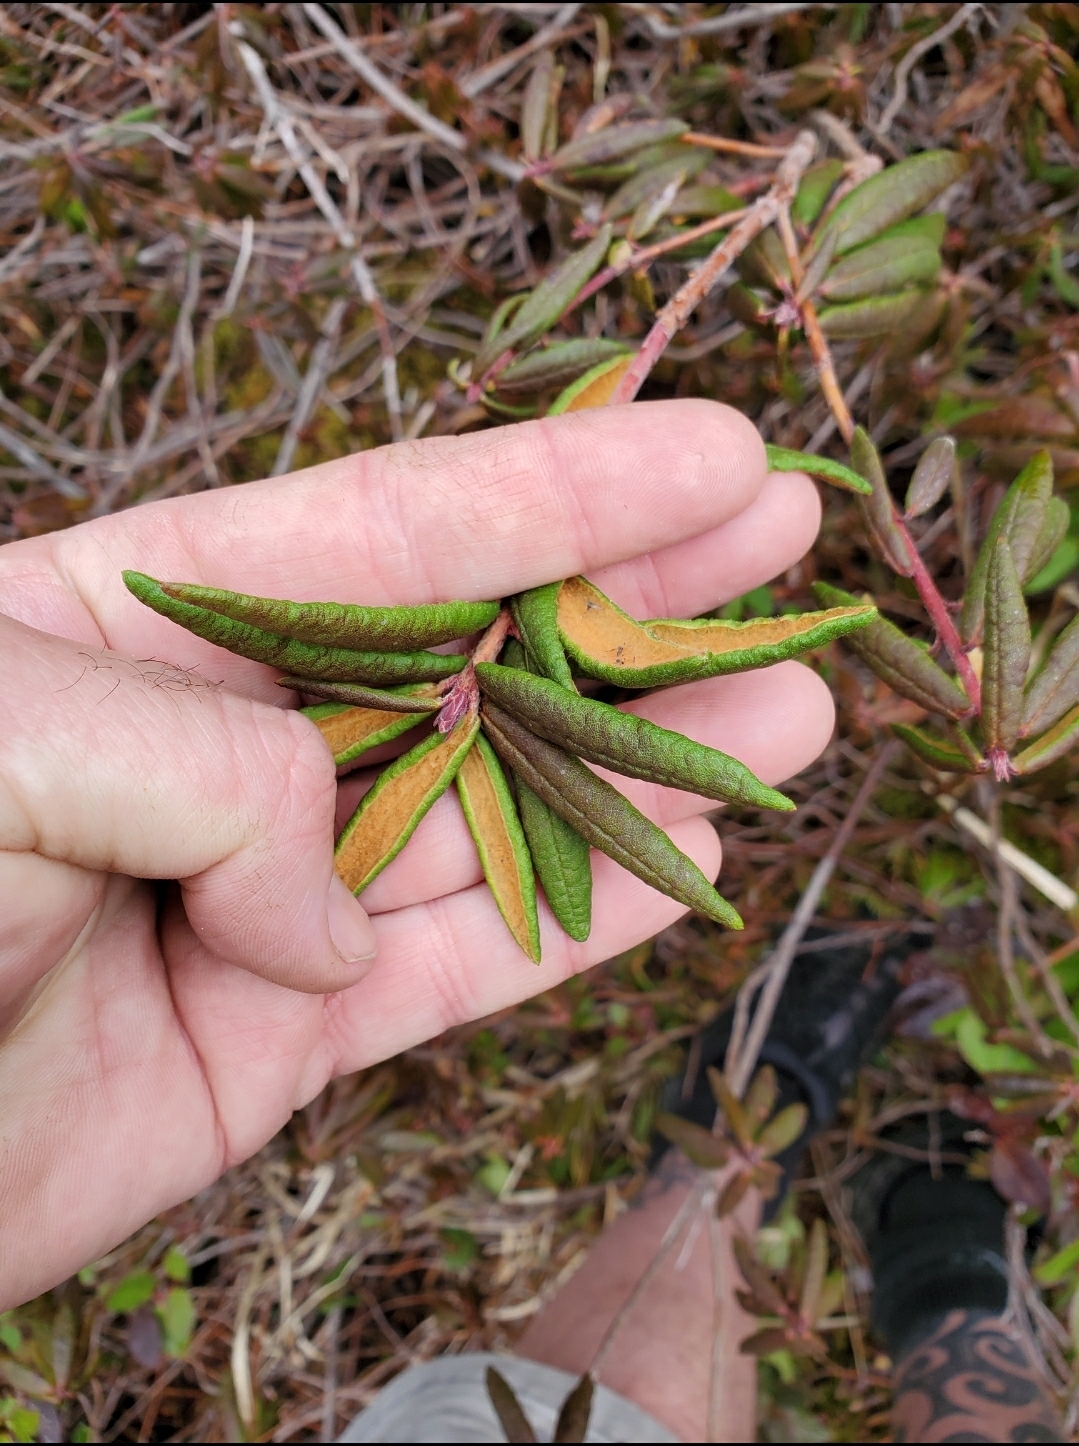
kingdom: Plantae
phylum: Tracheophyta
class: Magnoliopsida
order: Ericales
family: Ericaceae
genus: Rhododendron
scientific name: Rhododendron groenlandicum
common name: Bog labrador tea
